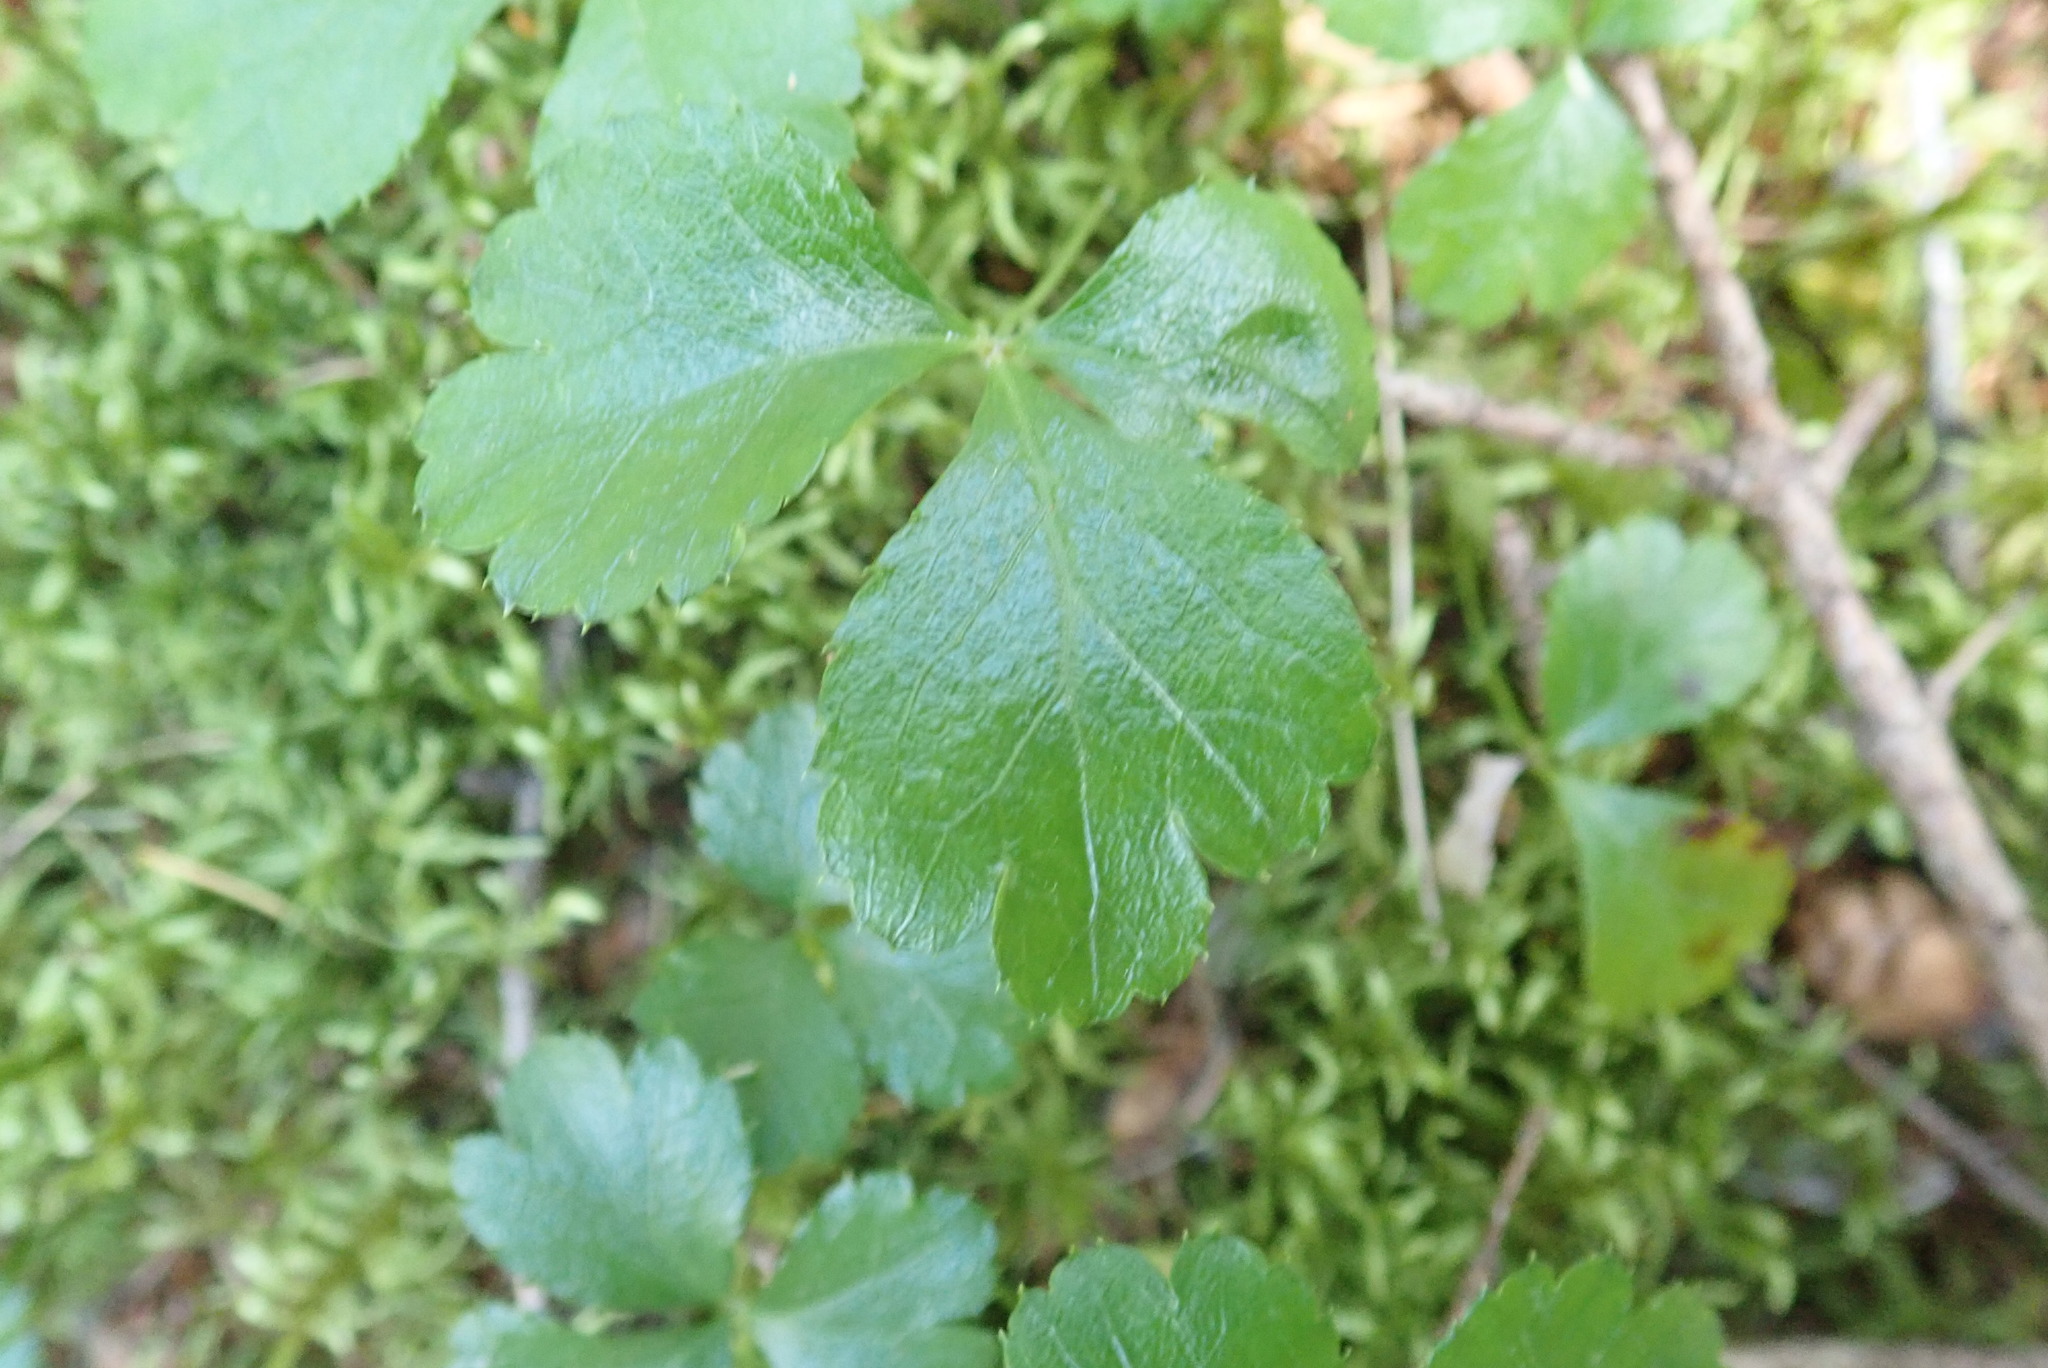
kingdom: Plantae
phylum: Tracheophyta
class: Magnoliopsida
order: Ranunculales
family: Ranunculaceae
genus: Coptis
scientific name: Coptis trifolia
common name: Canker-root
